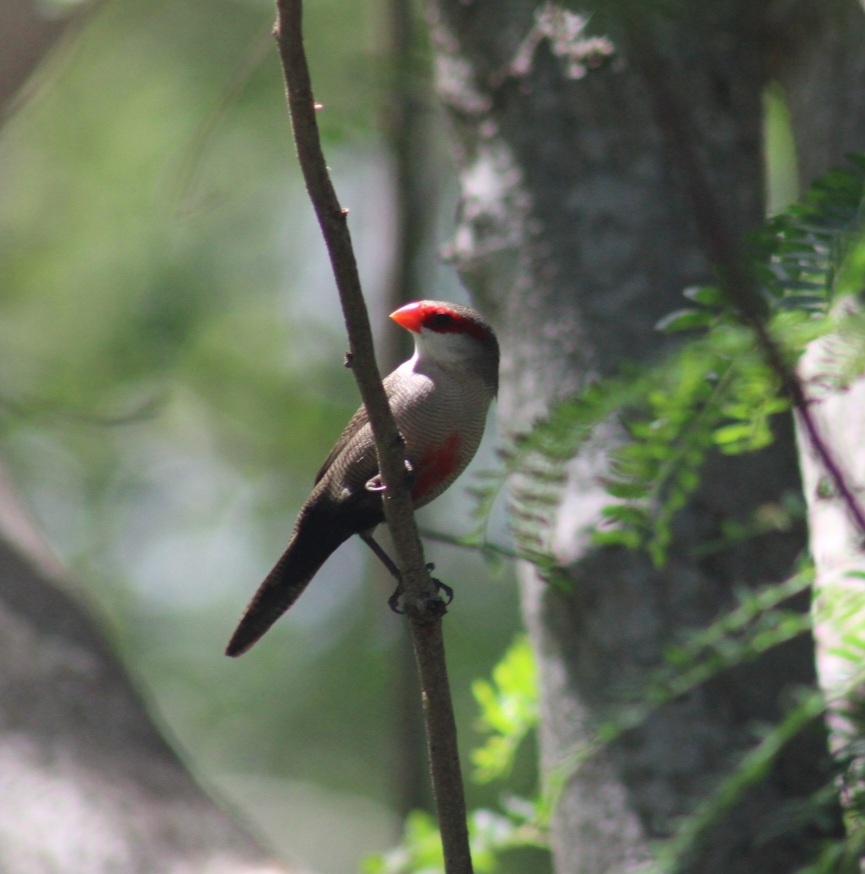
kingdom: Animalia
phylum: Chordata
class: Aves
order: Passeriformes
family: Estrildidae
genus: Estrilda
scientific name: Estrilda astrild
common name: Common waxbill
